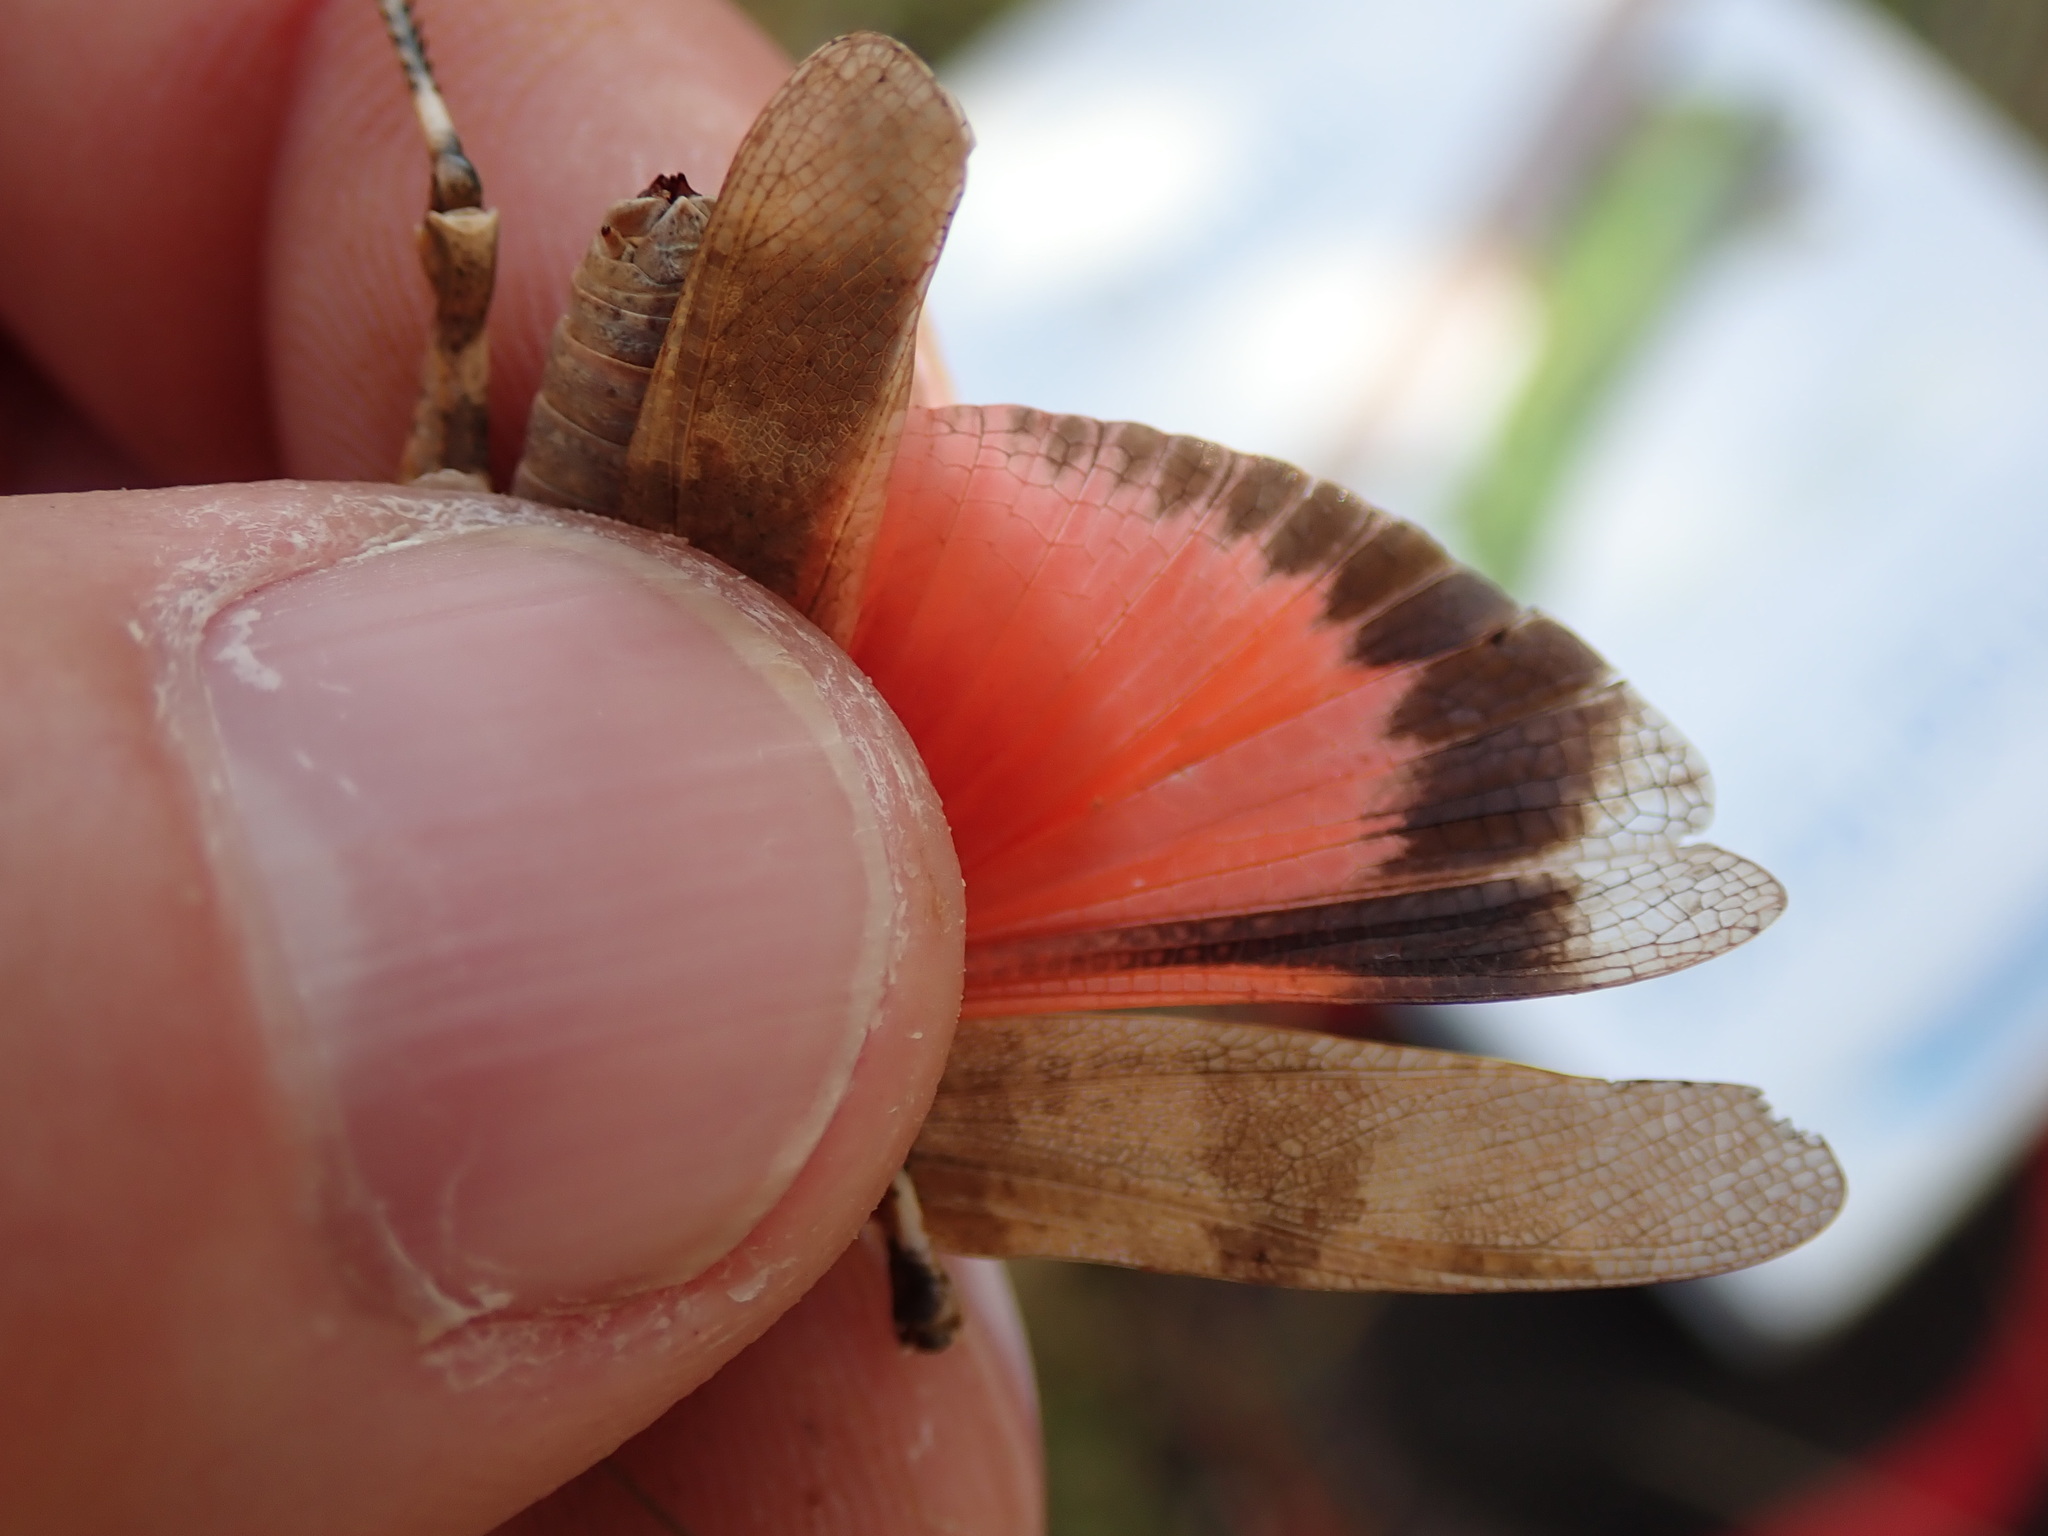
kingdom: Animalia
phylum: Arthropoda
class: Insecta
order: Orthoptera
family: Acrididae
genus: Oedipoda
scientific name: Oedipoda germanica
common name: Red band-winged grasshopper
